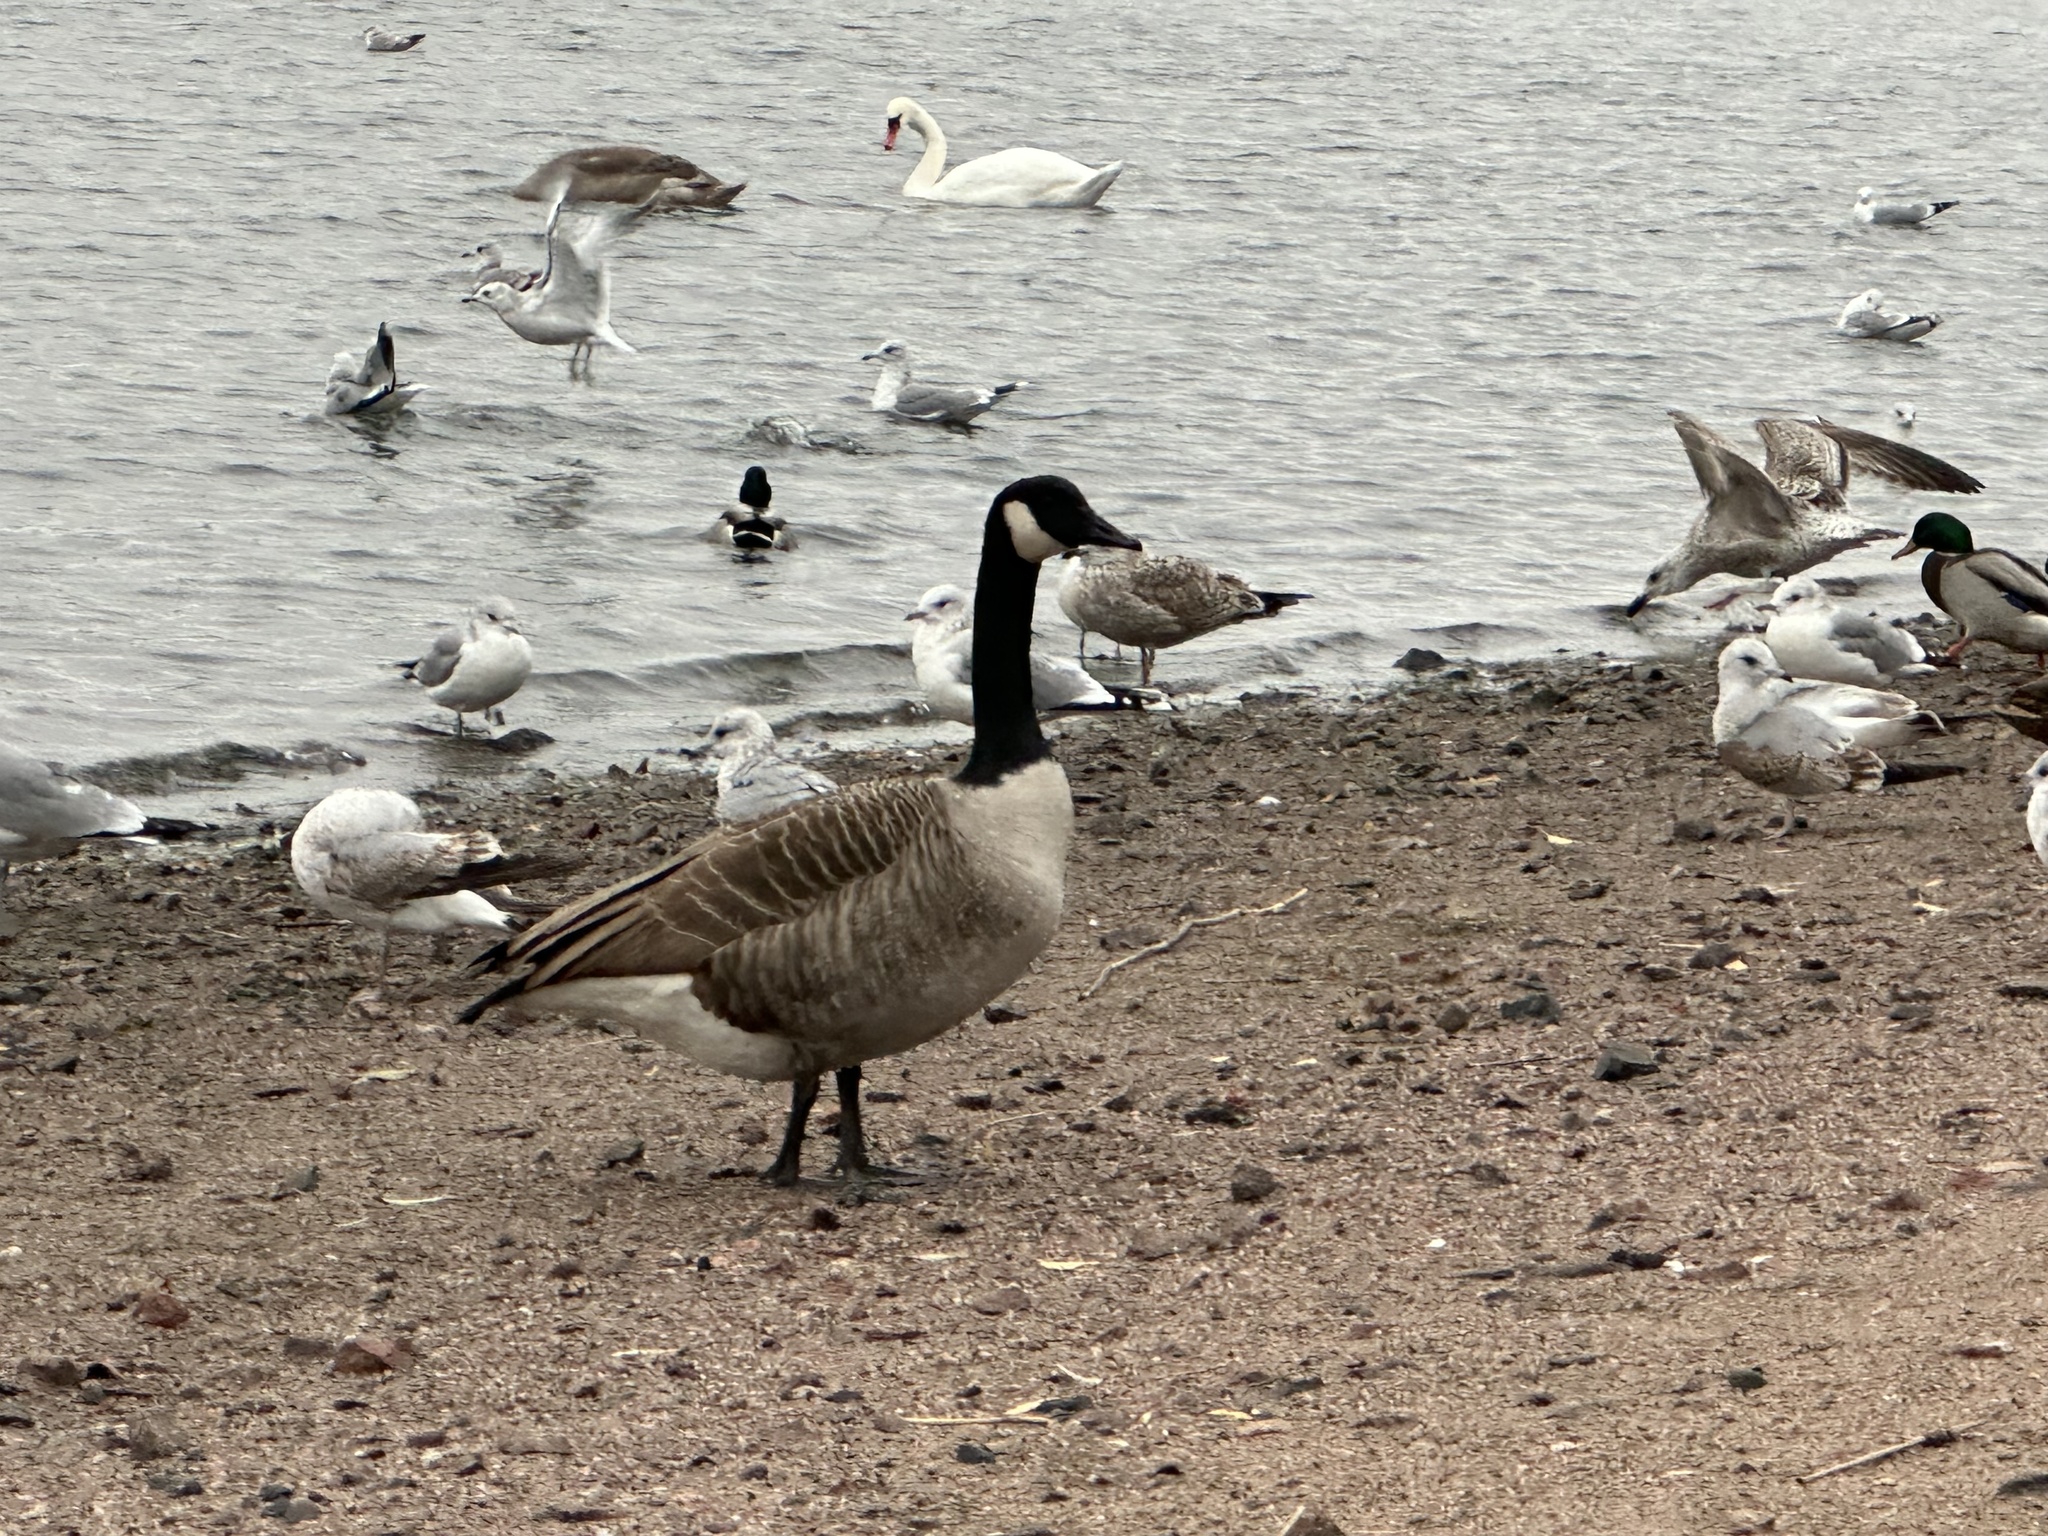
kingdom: Animalia
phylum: Chordata
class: Aves
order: Anseriformes
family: Anatidae
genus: Branta
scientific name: Branta canadensis
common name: Canada goose
